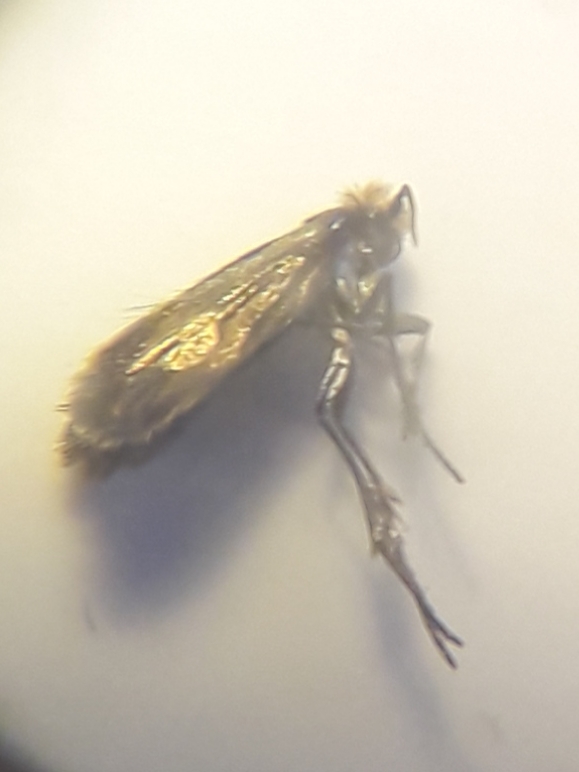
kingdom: Animalia
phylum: Arthropoda
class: Insecta
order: Lepidoptera
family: Micropterigidae
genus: Micropterix
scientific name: Micropterix calthella
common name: Plain gold
